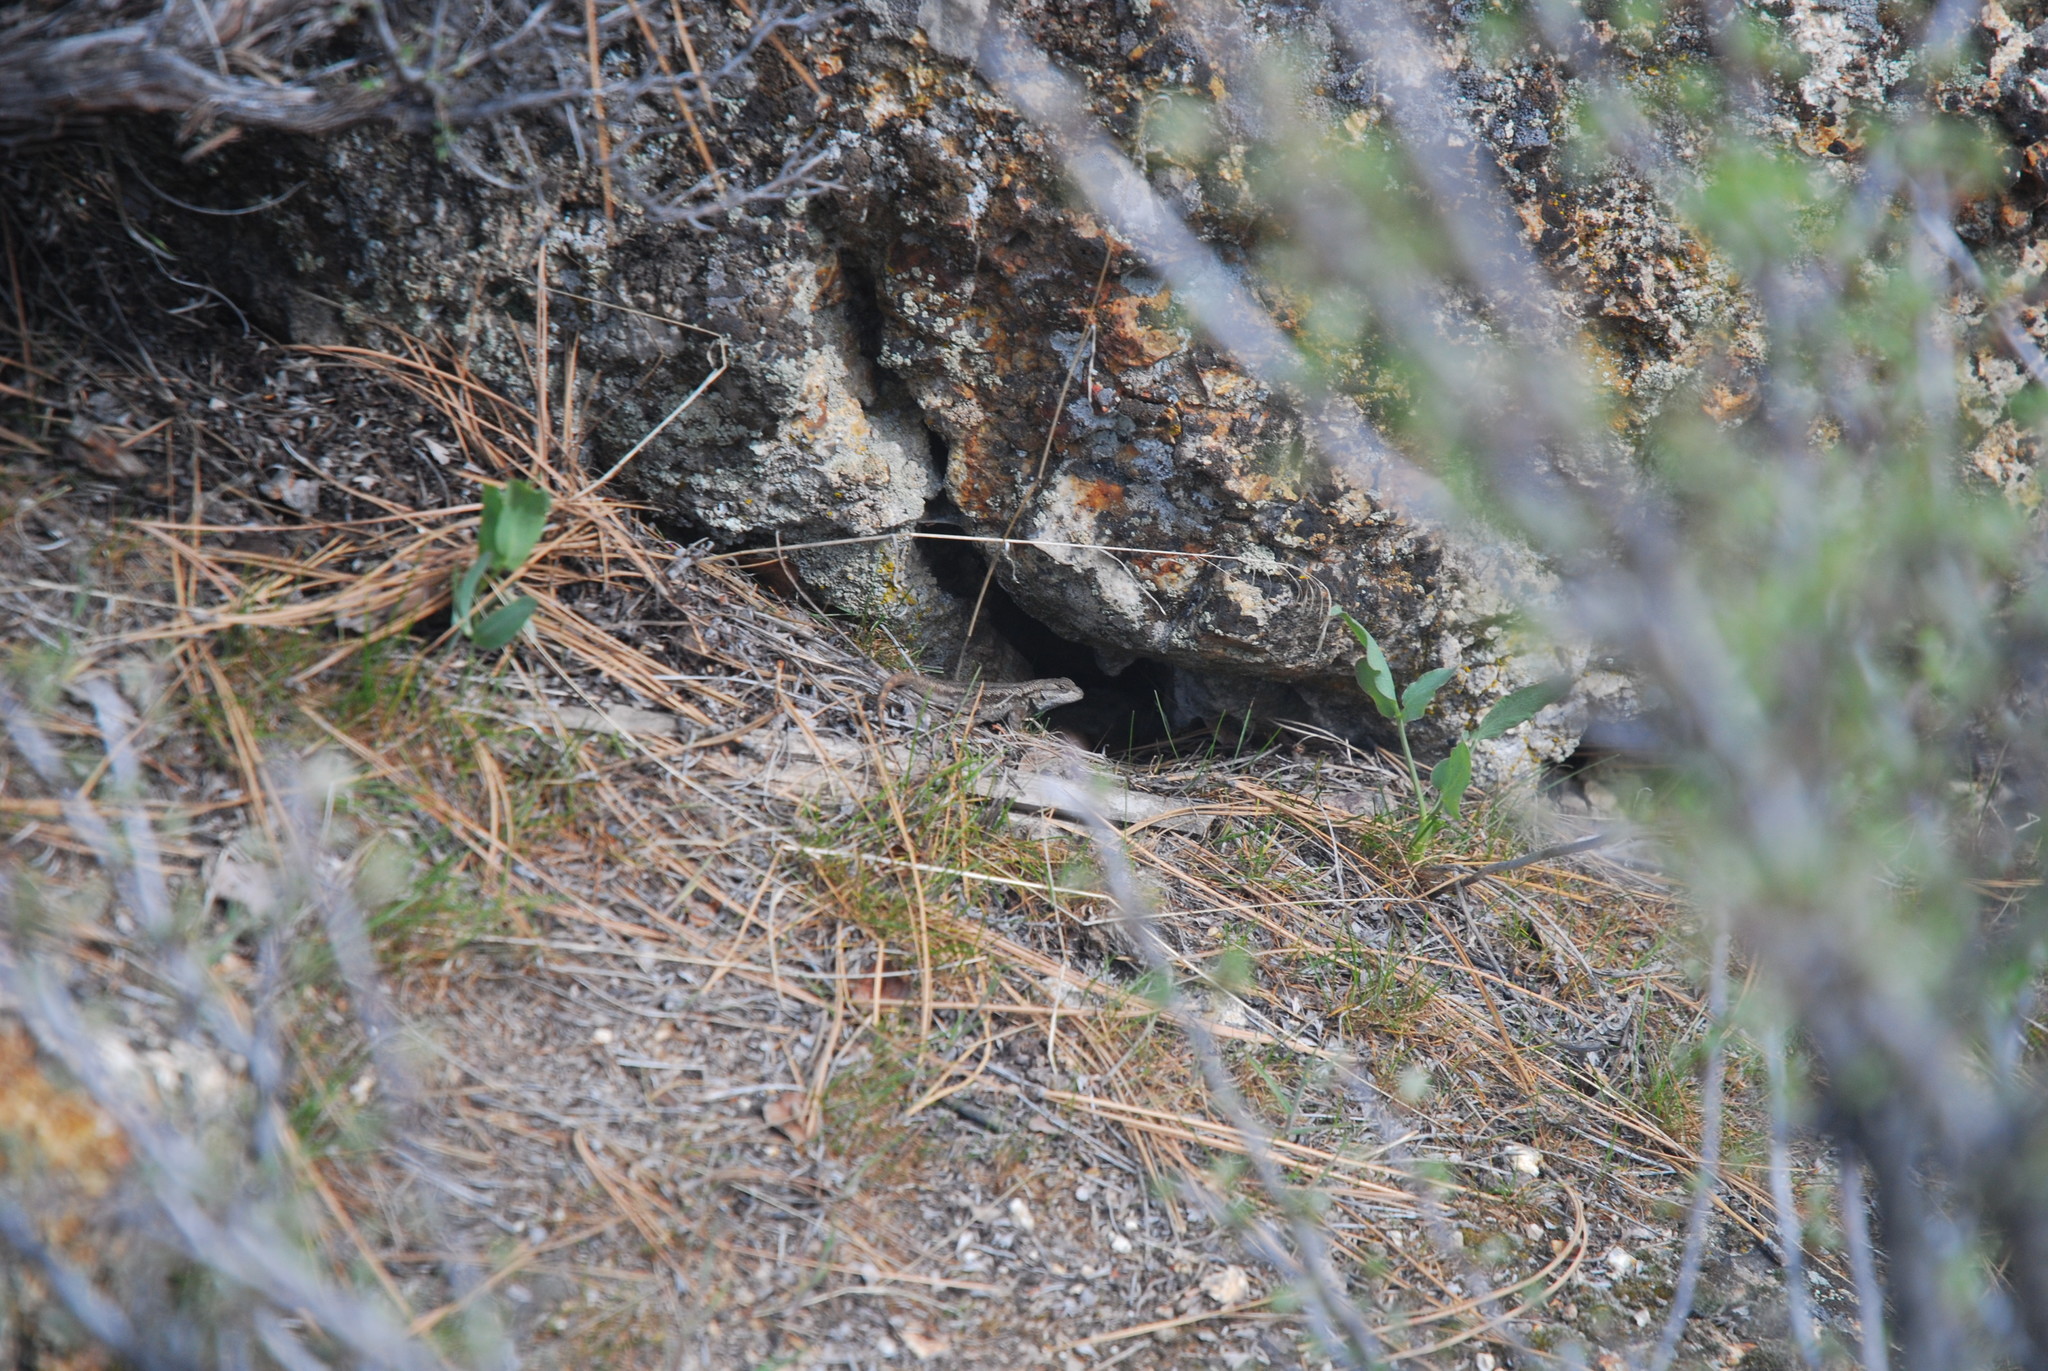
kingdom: Animalia
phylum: Chordata
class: Squamata
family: Phrynosomatidae
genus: Sceloporus
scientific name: Sceloporus occidentalis
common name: Western fence lizard
